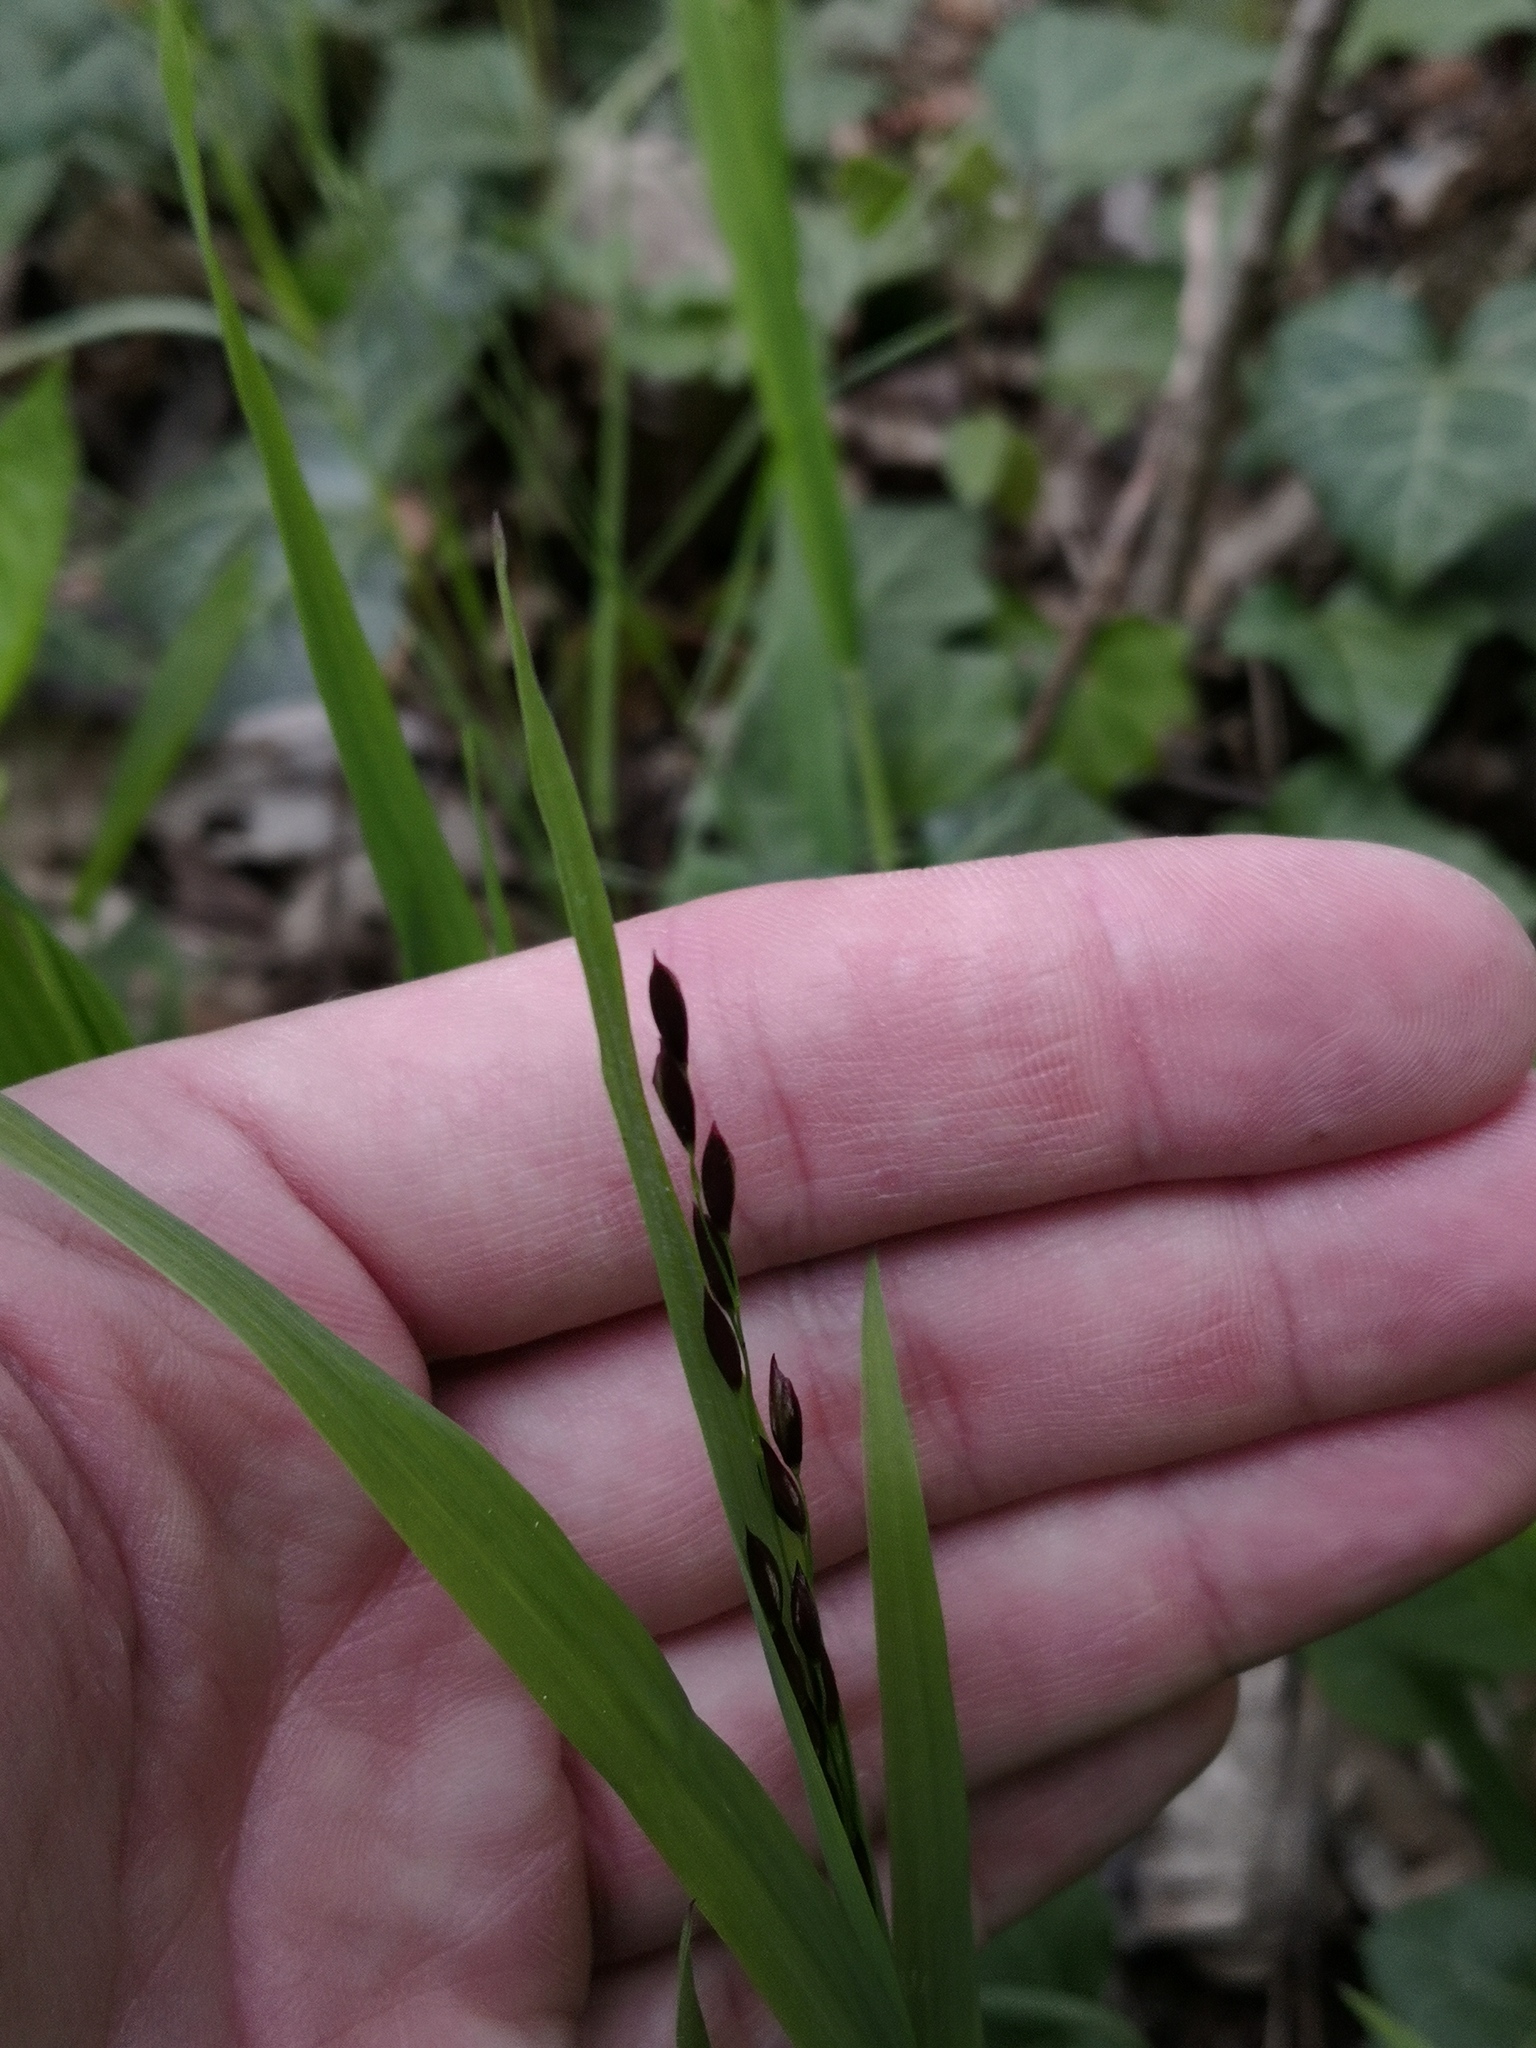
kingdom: Plantae
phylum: Tracheophyta
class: Liliopsida
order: Poales
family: Poaceae
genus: Melica
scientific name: Melica uniflora
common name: Wood melick
